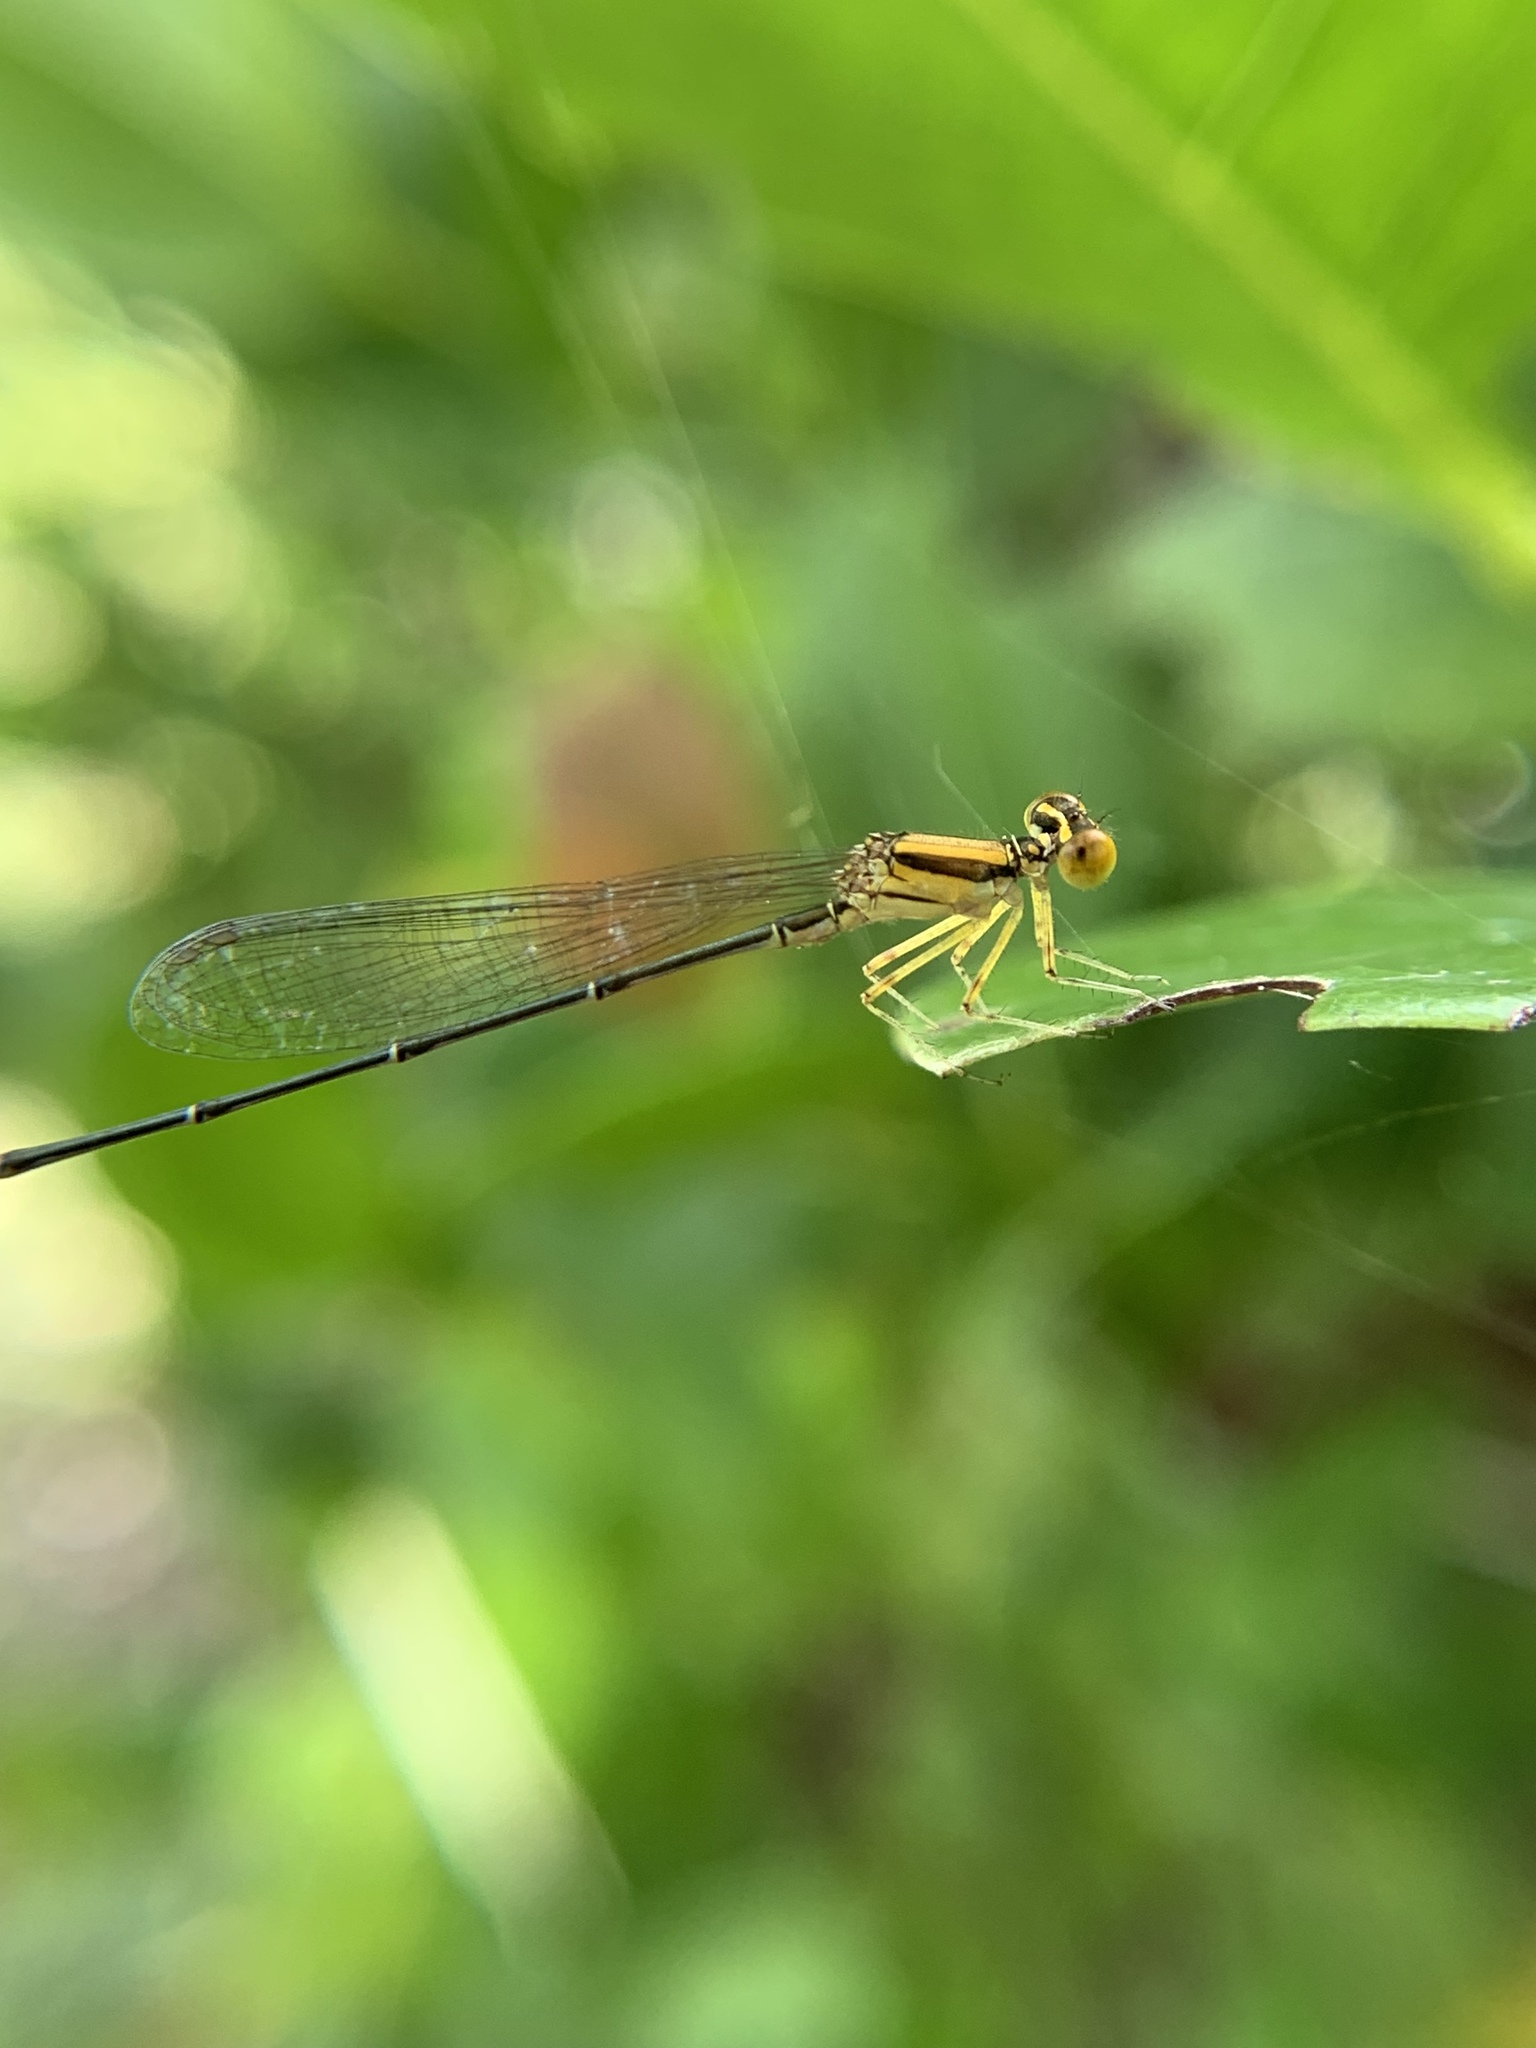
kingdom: Animalia
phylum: Arthropoda
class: Insecta
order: Odonata
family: Coenagrionidae
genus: Enallagma
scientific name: Enallagma sulcatum
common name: Golden bluet
